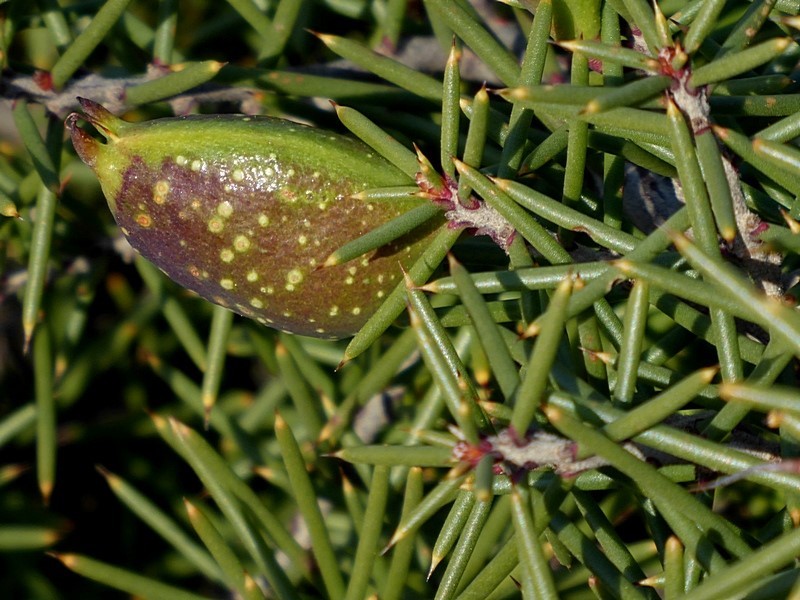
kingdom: Plantae
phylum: Tracheophyta
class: Magnoliopsida
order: Proteales
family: Proteaceae
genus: Hakea
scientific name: Hakea decurrens
